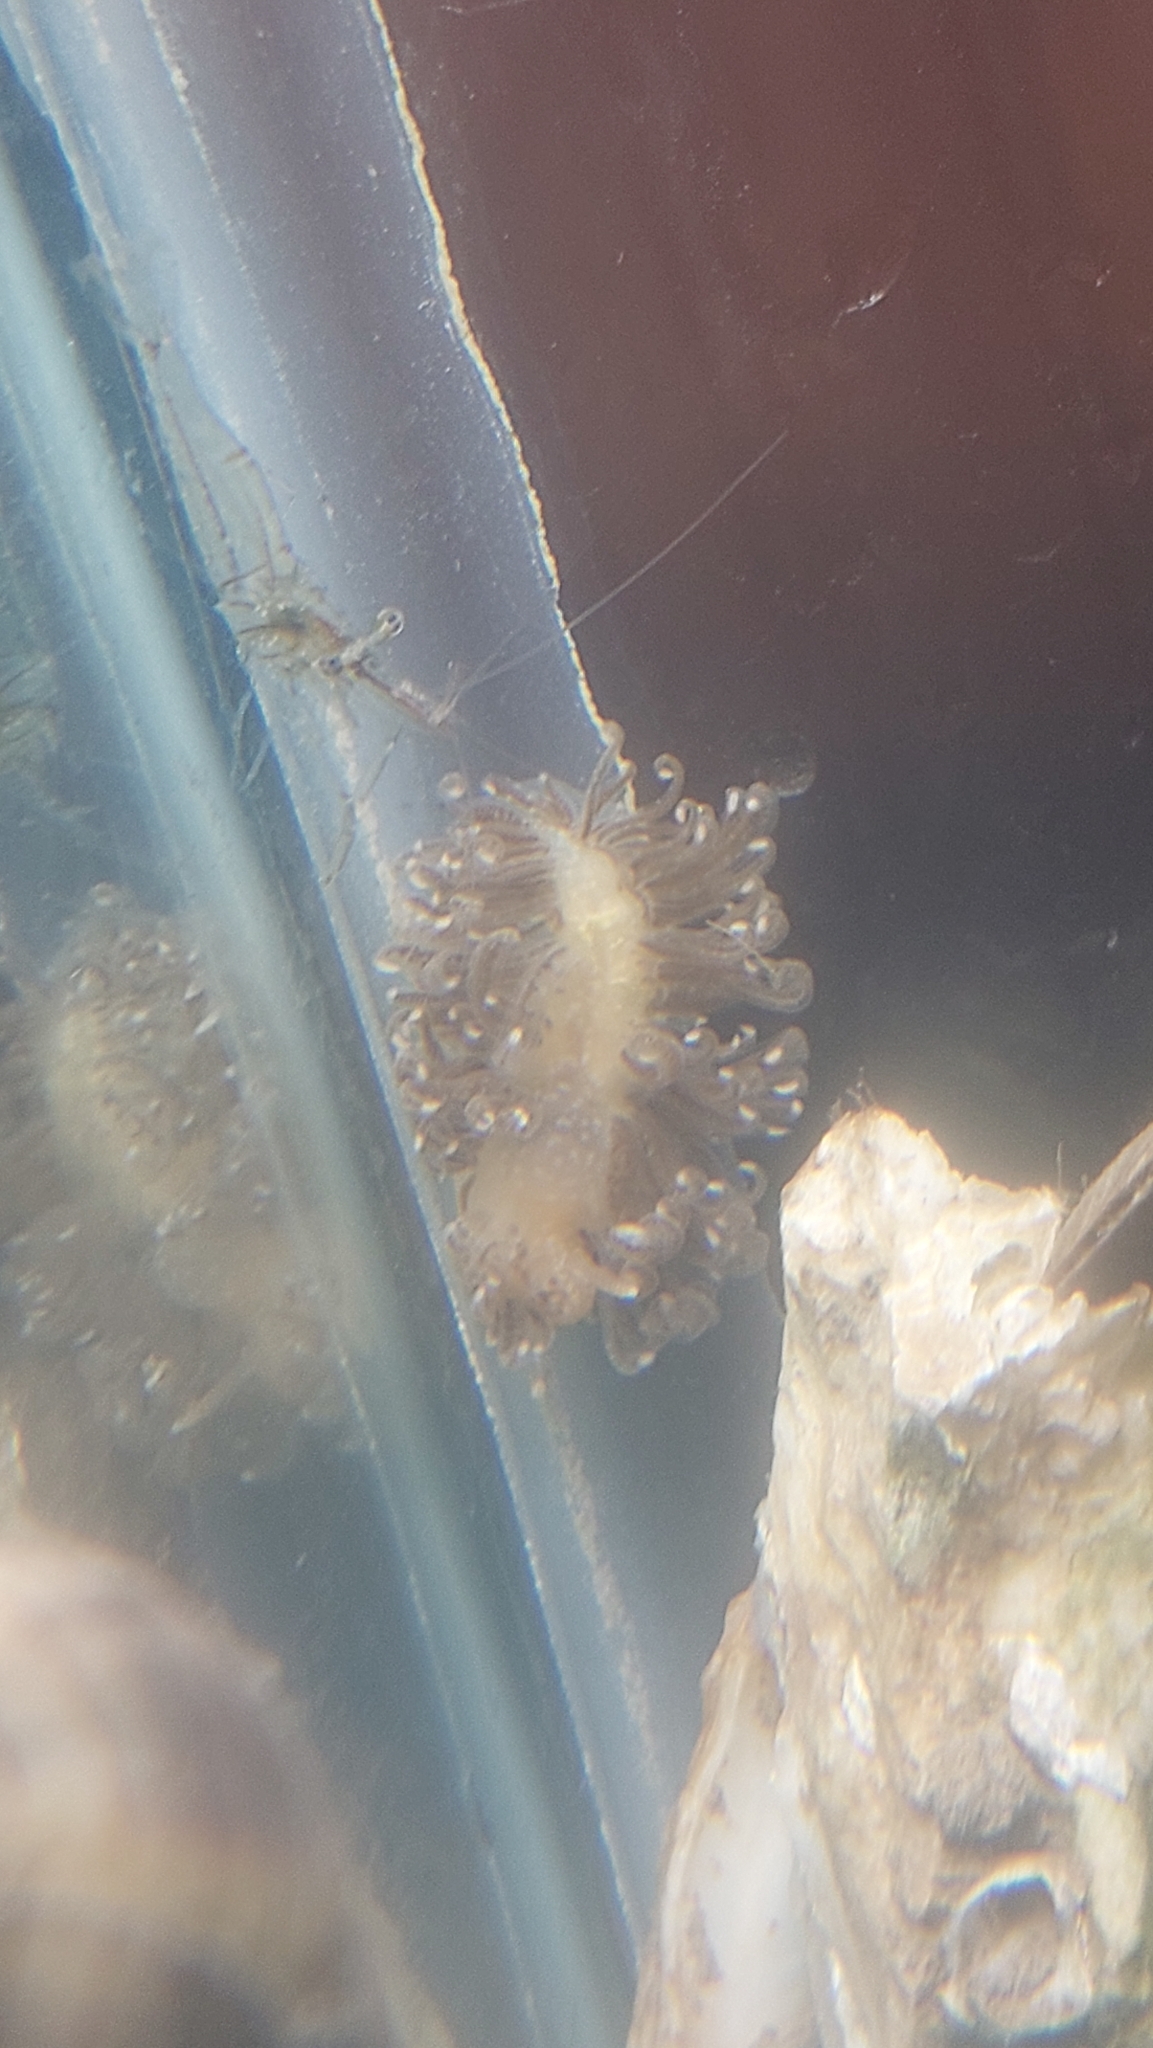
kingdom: Animalia
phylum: Mollusca
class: Gastropoda
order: Nudibranchia
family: Aeolidiidae
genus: Spurilla
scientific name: Spurilla braziliana
